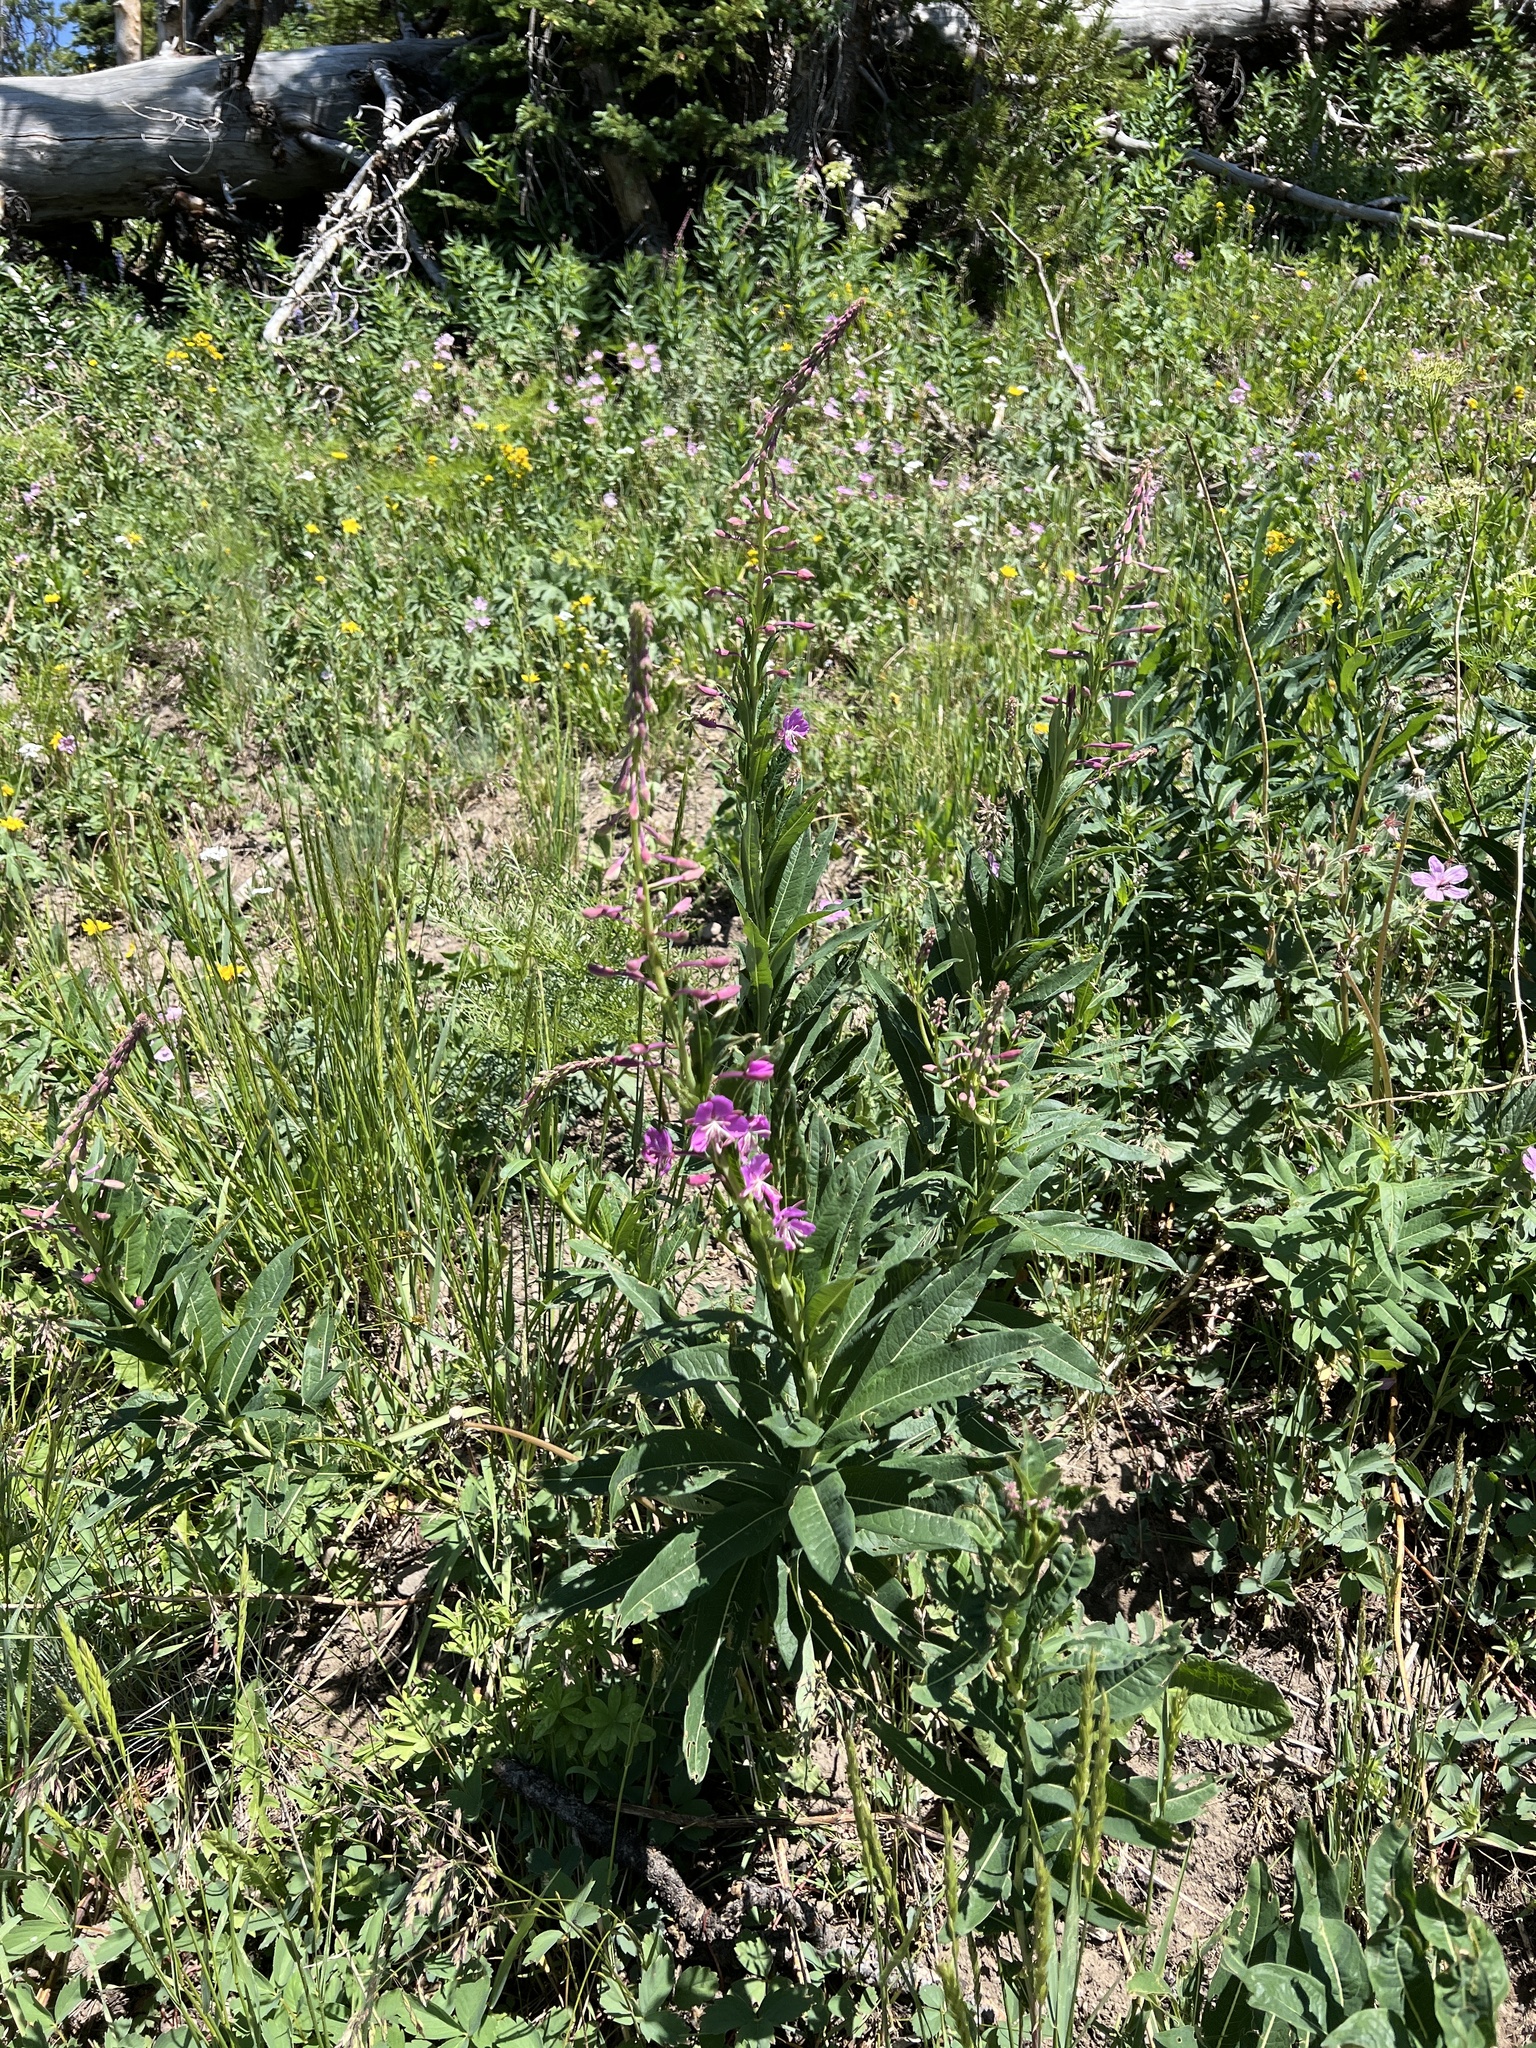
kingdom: Plantae
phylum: Tracheophyta
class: Magnoliopsida
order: Myrtales
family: Onagraceae
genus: Chamaenerion
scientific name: Chamaenerion angustifolium
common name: Fireweed
